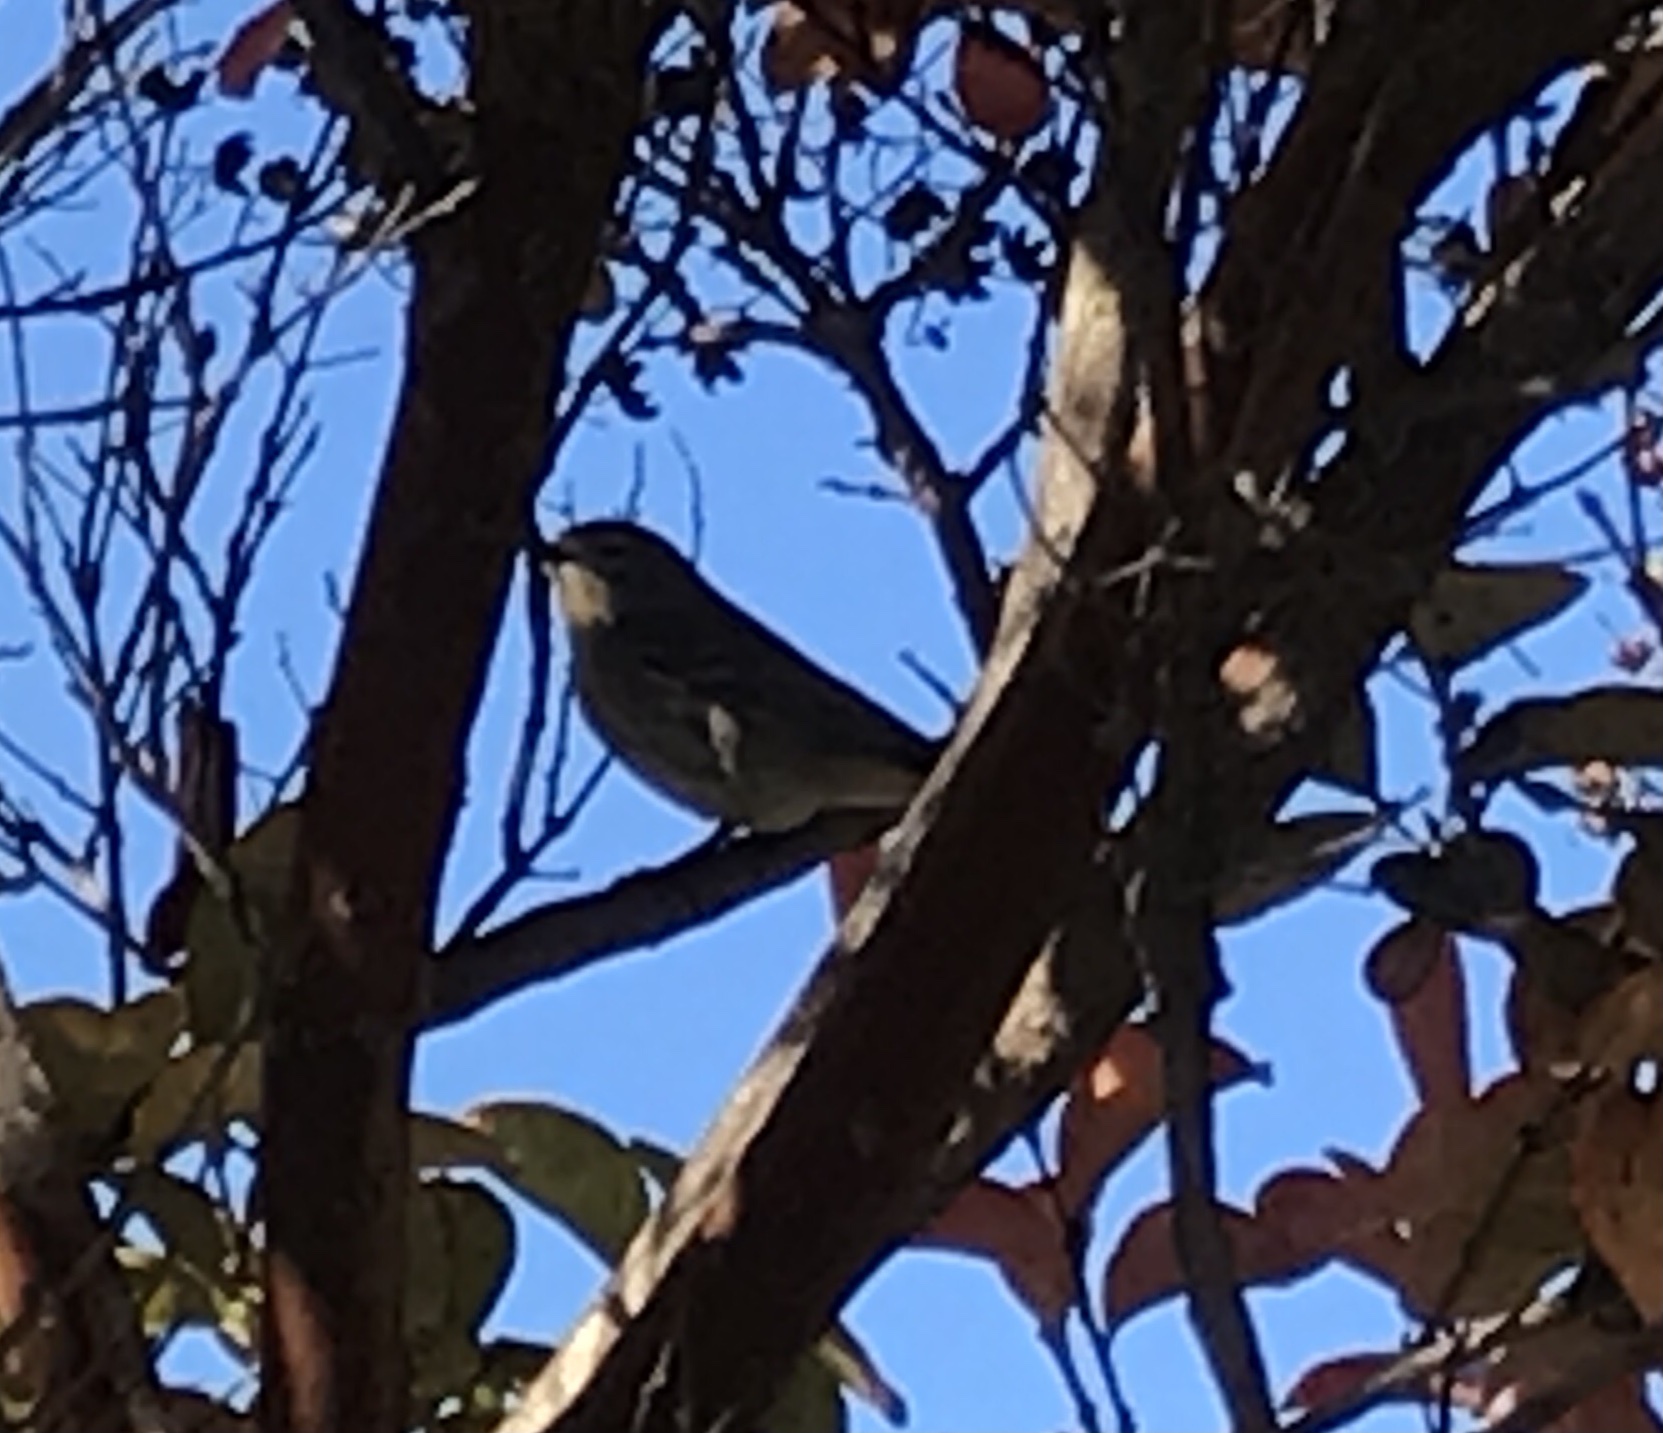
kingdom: Animalia
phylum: Chordata
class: Aves
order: Passeriformes
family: Parulidae
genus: Setophaga
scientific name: Setophaga coronata
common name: Myrtle warbler
